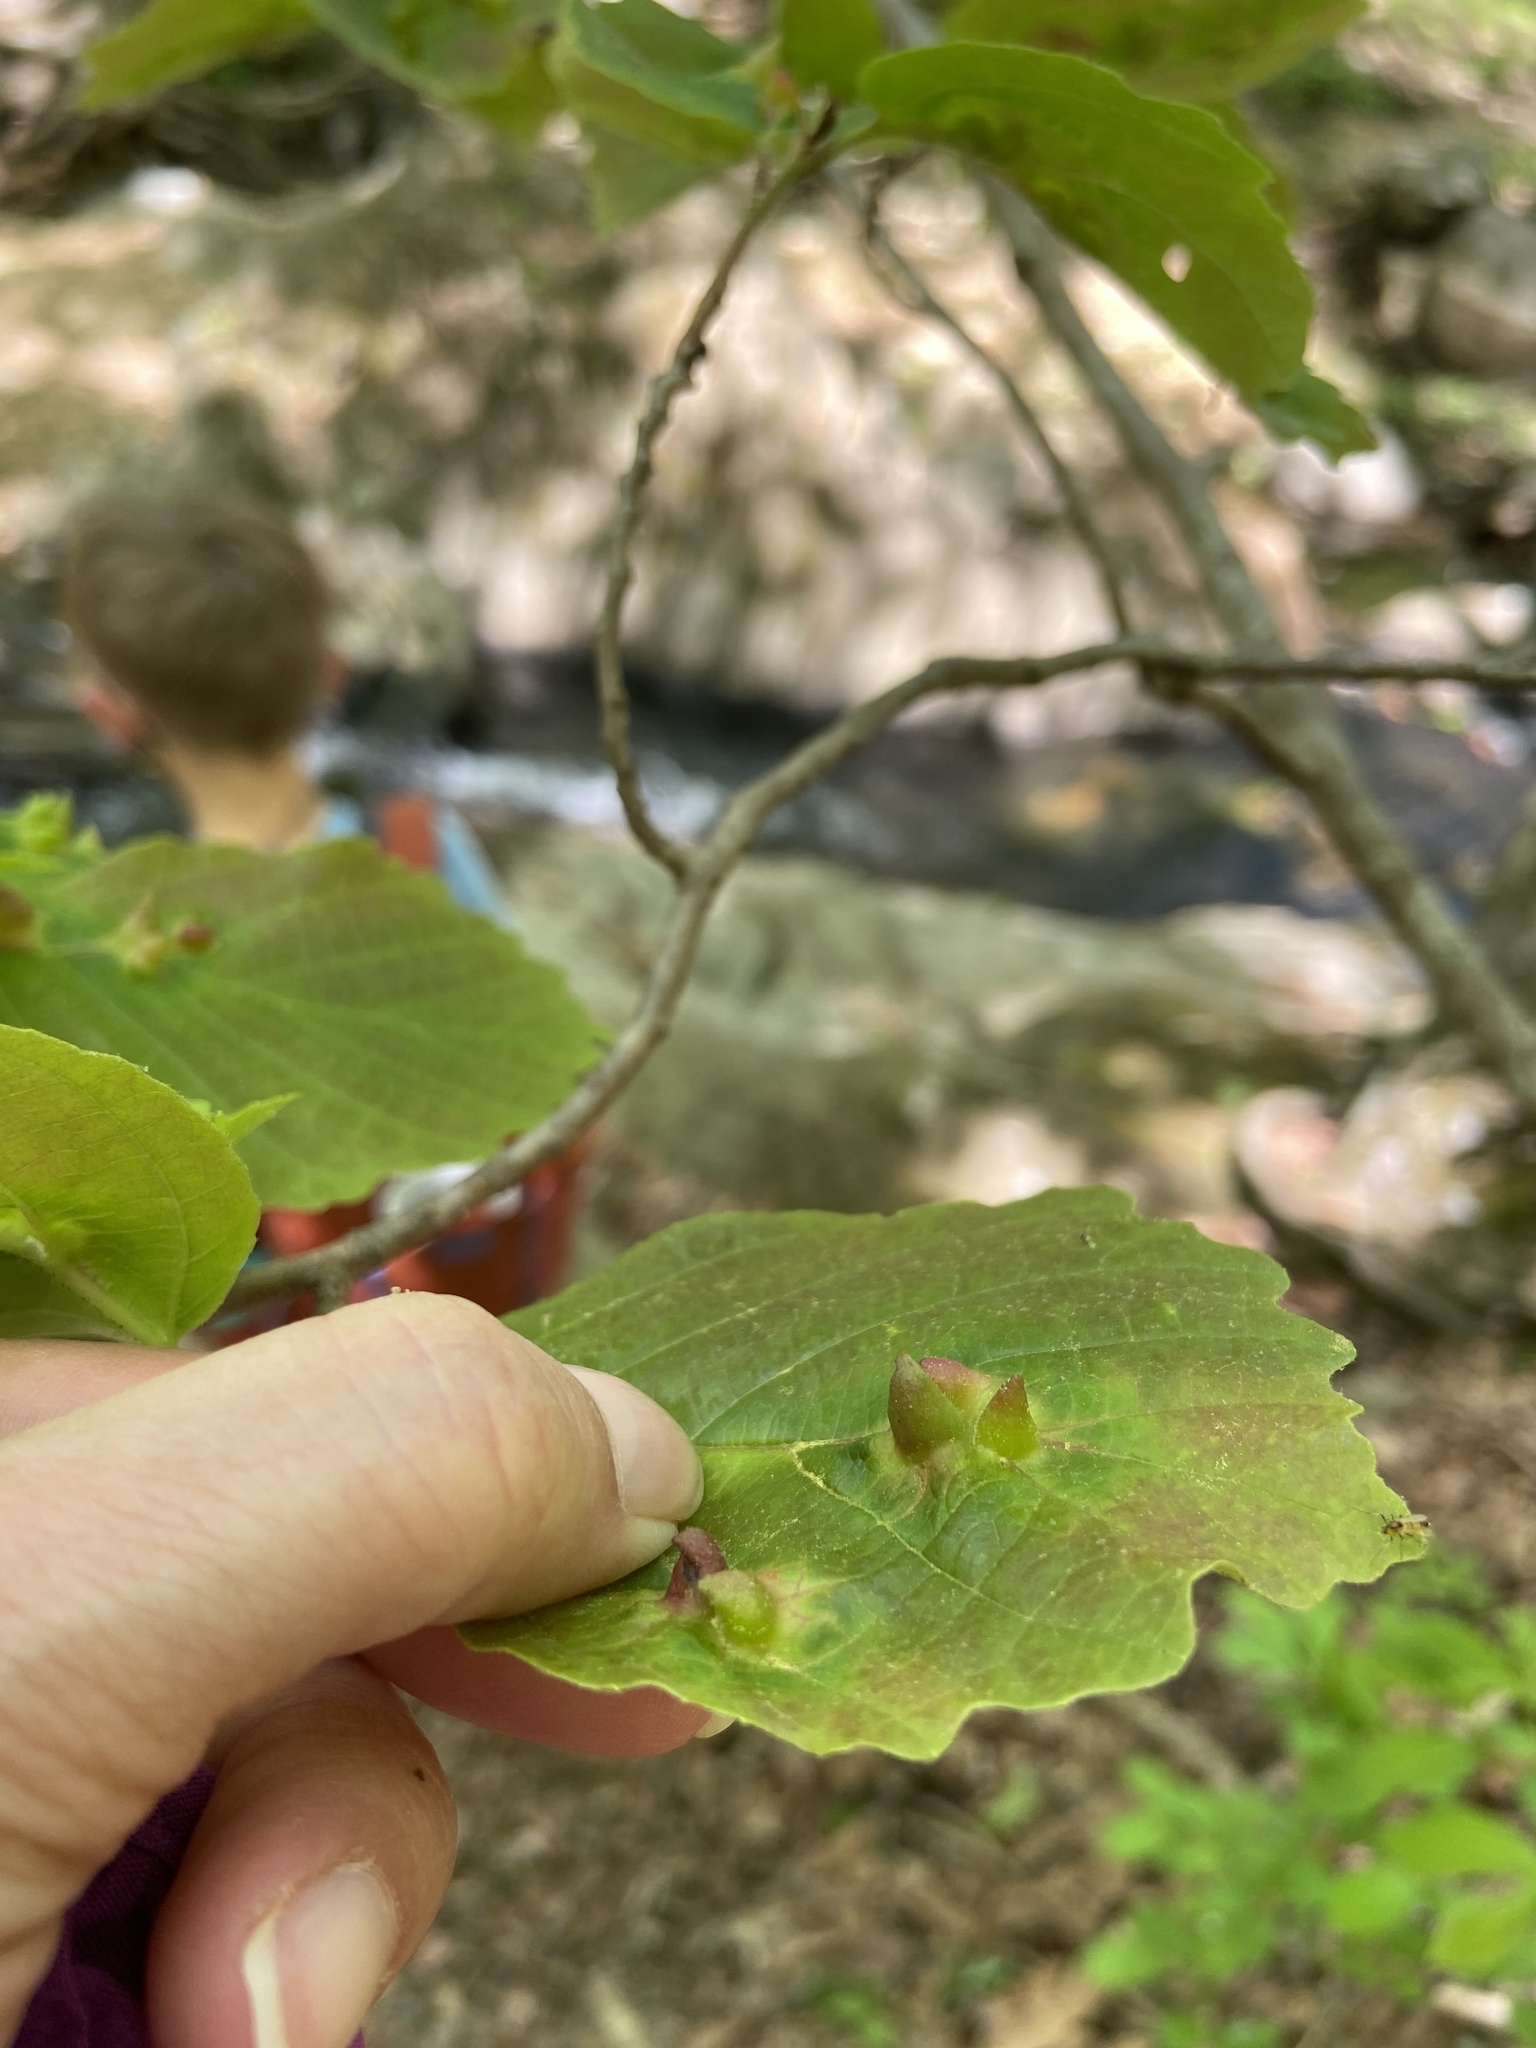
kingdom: Animalia
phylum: Arthropoda
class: Insecta
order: Hemiptera
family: Aphididae
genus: Hormaphis
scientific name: Hormaphis hamamelidis
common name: Witch-hazel cone gall aphid
